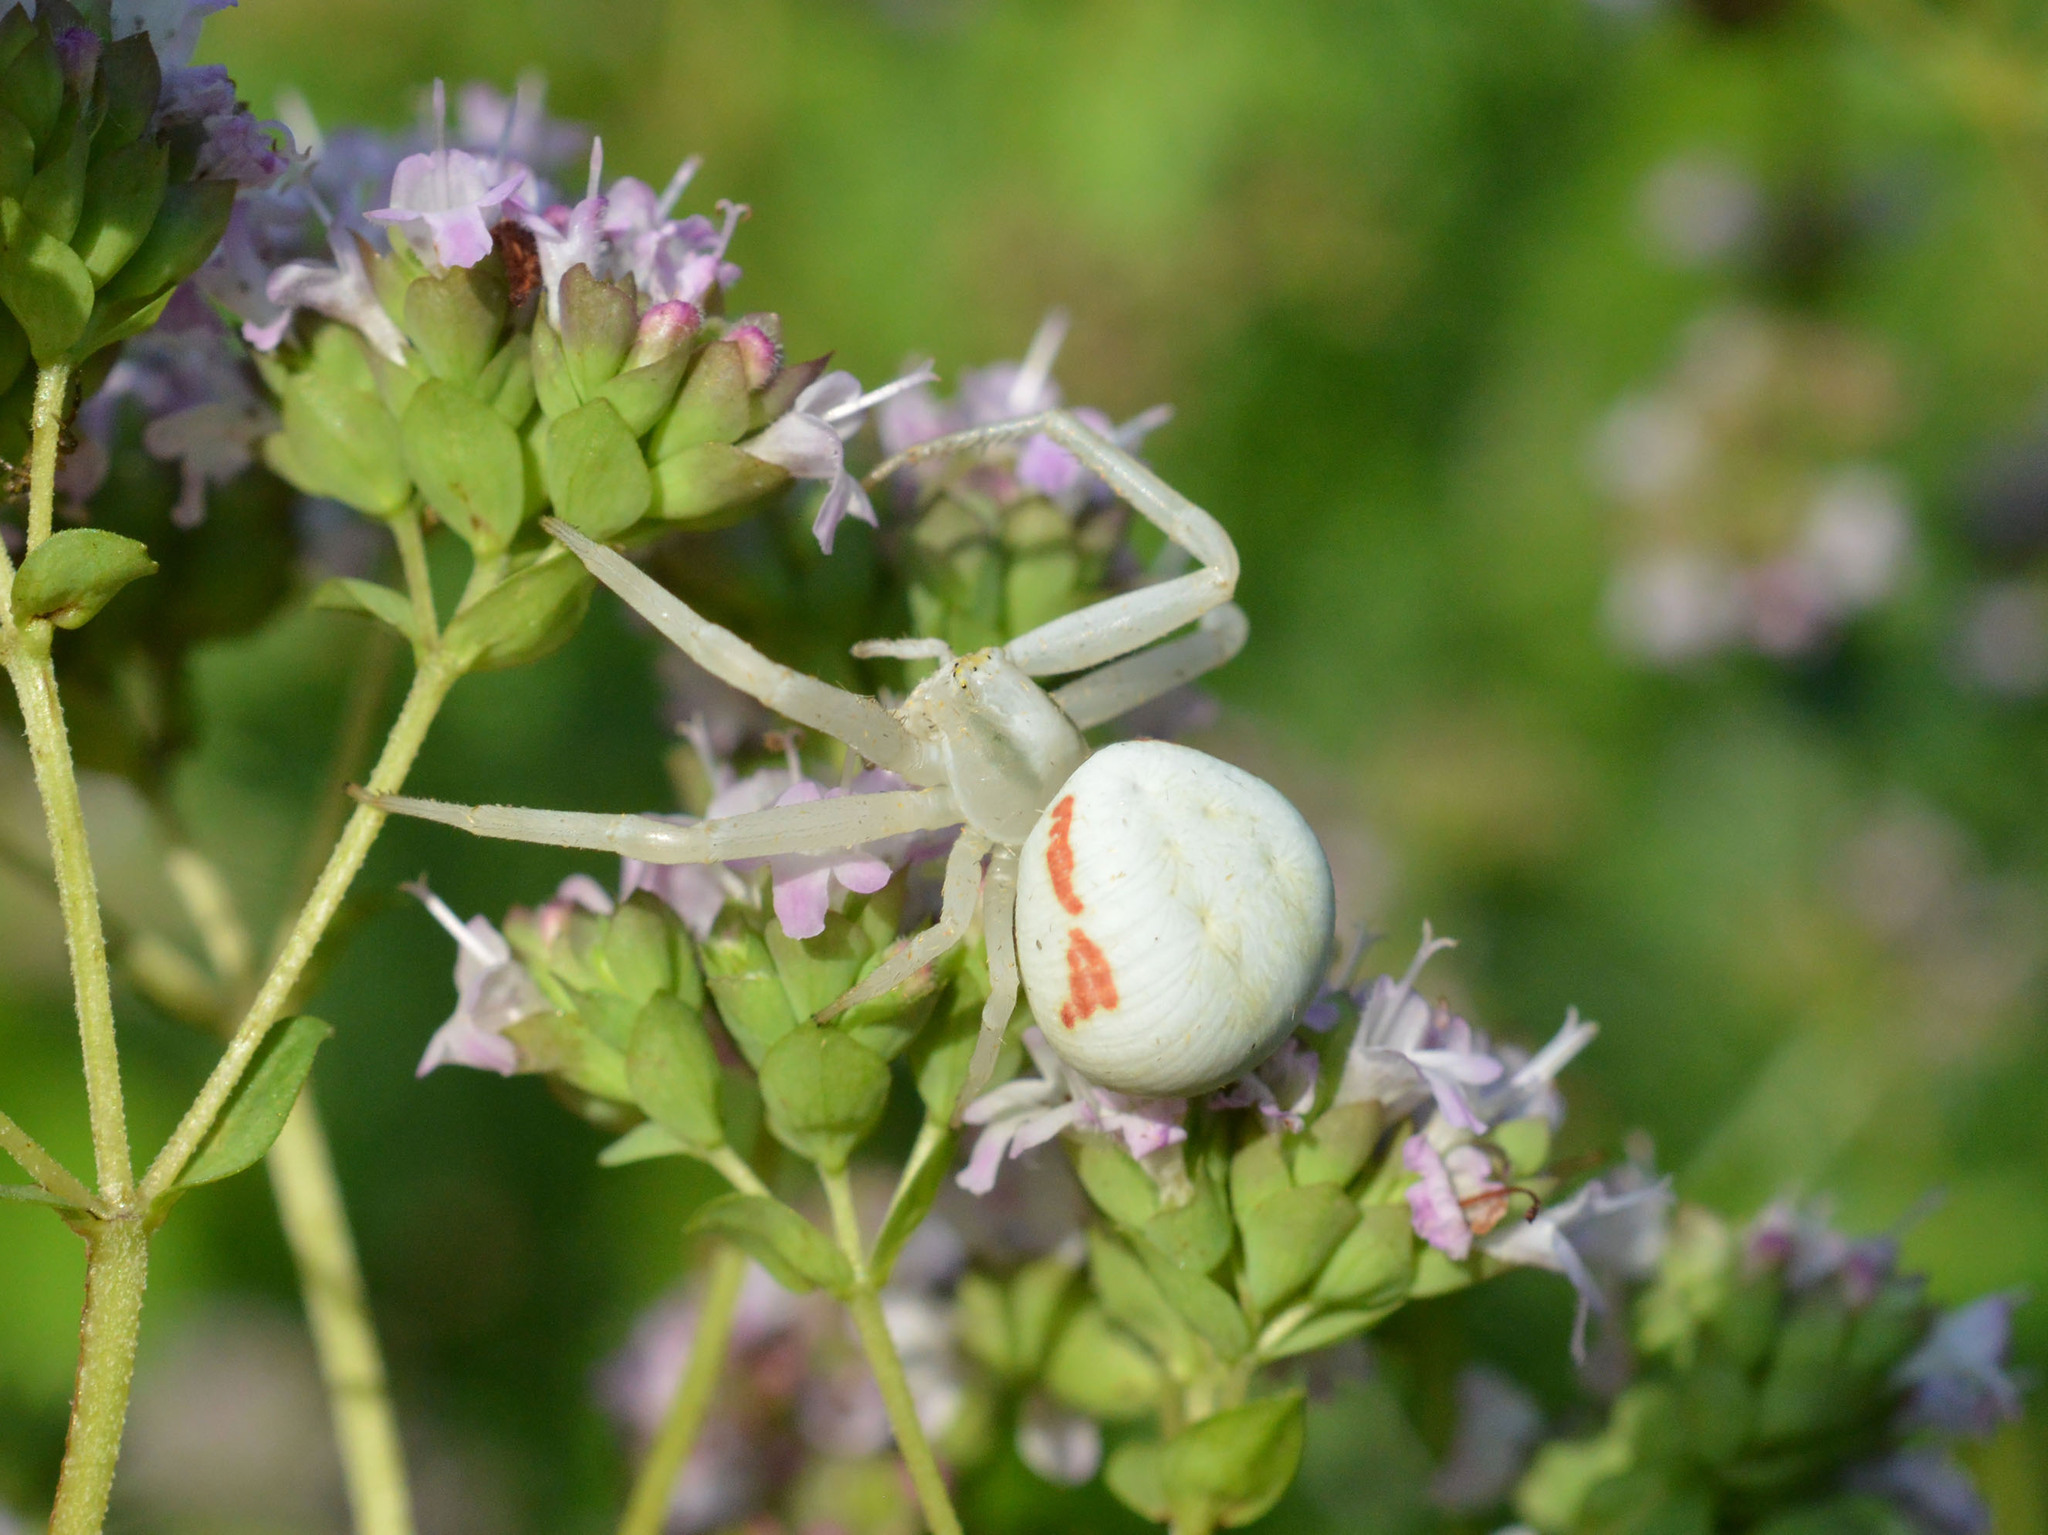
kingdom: Animalia
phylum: Arthropoda
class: Arachnida
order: Araneae
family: Thomisidae
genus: Misumena
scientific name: Misumena vatia
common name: Goldenrod crab spider
